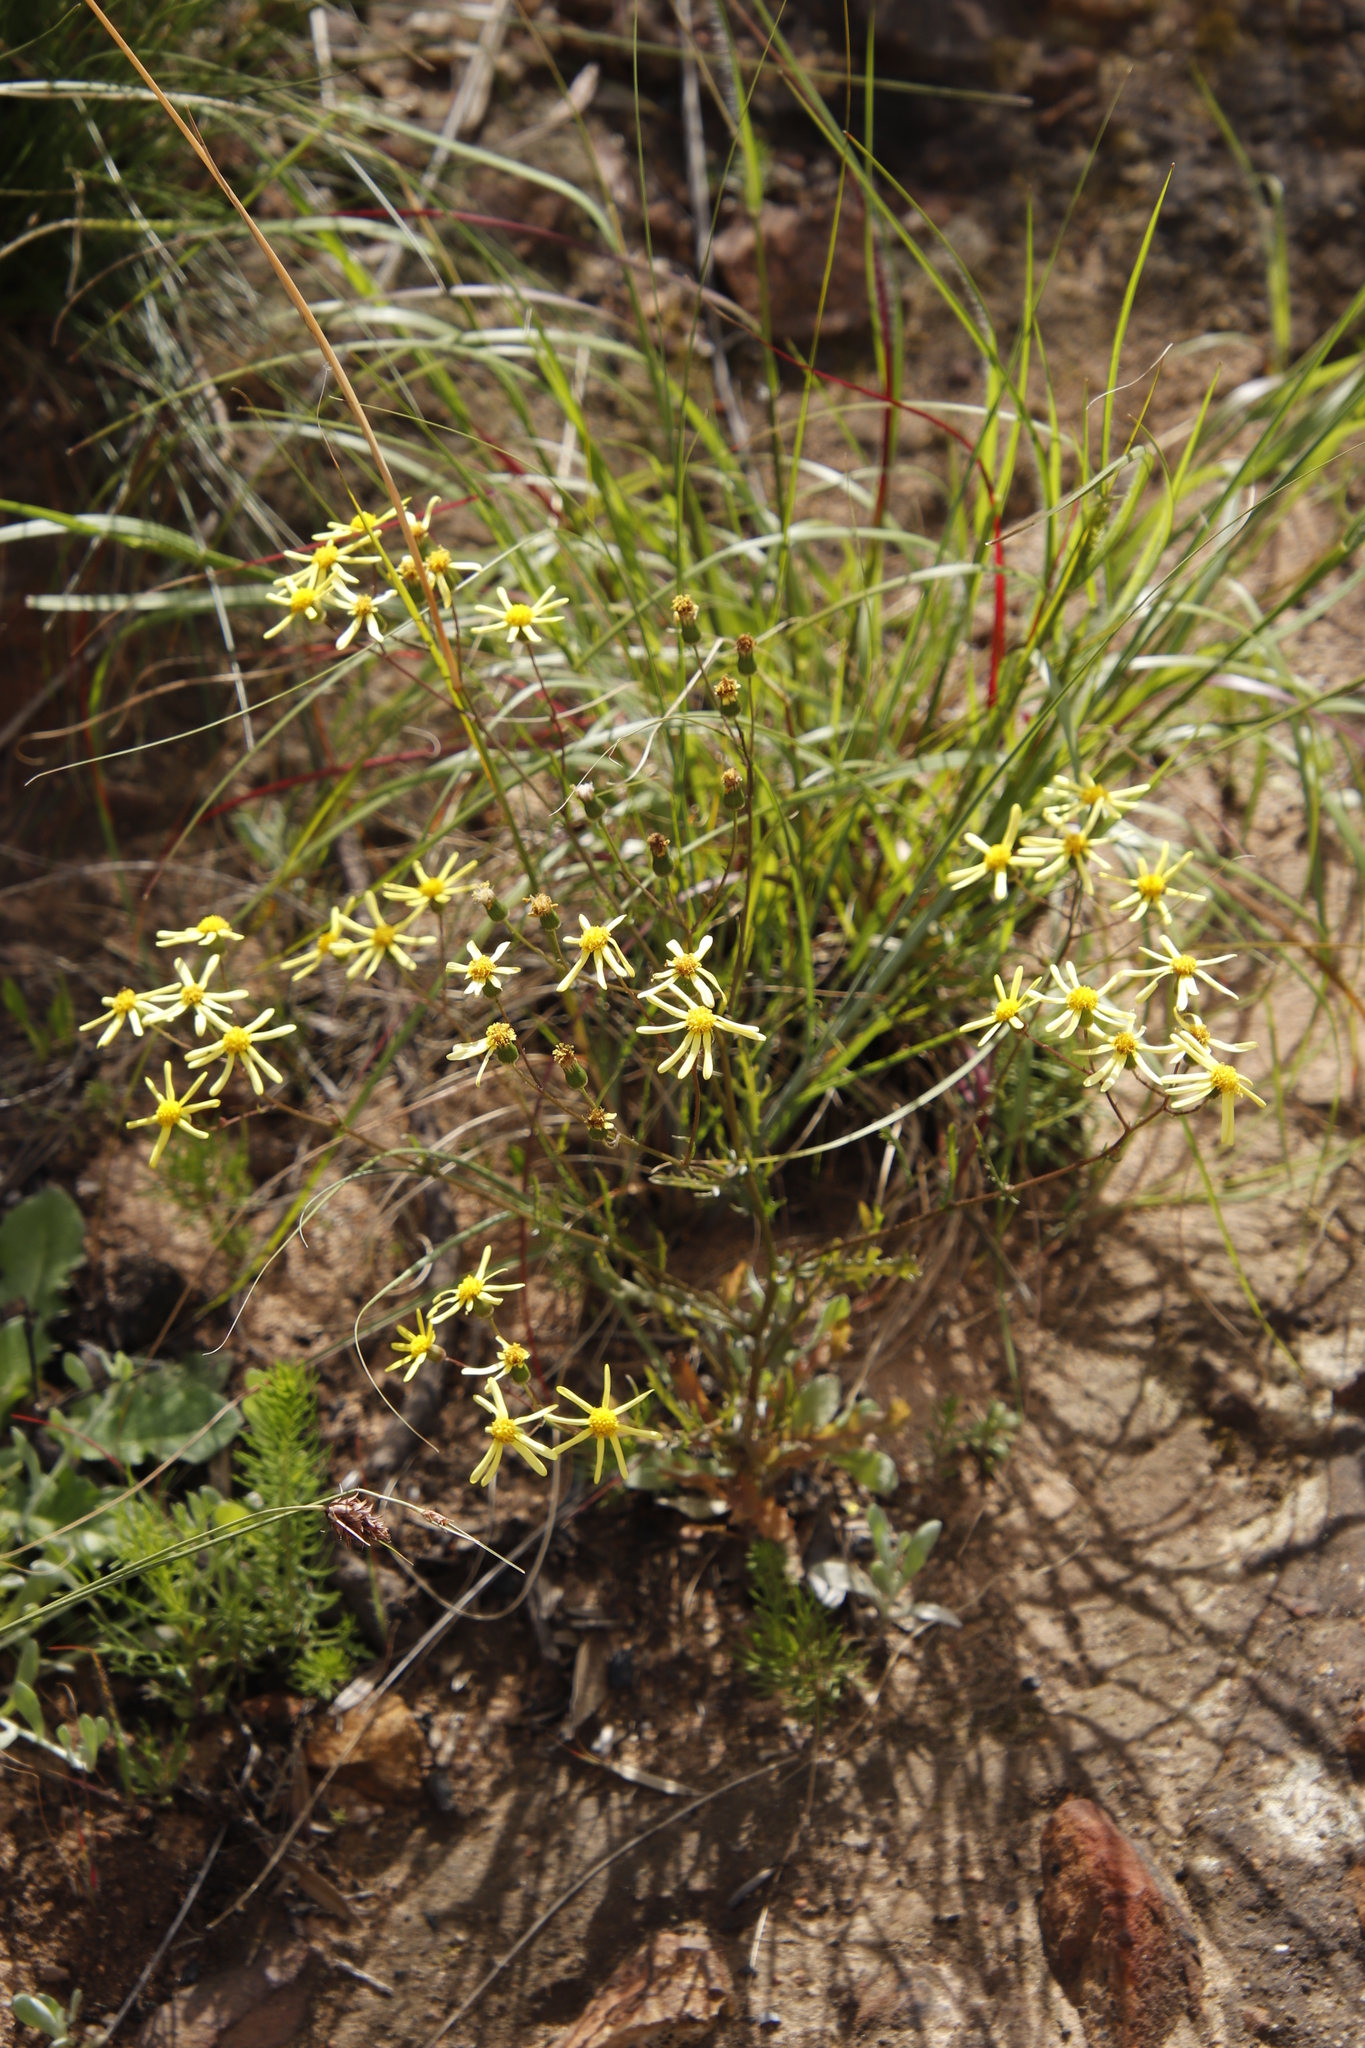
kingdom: Plantae
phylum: Tracheophyta
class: Magnoliopsida
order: Asterales
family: Asteraceae
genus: Senecio
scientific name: Senecio abruptus
